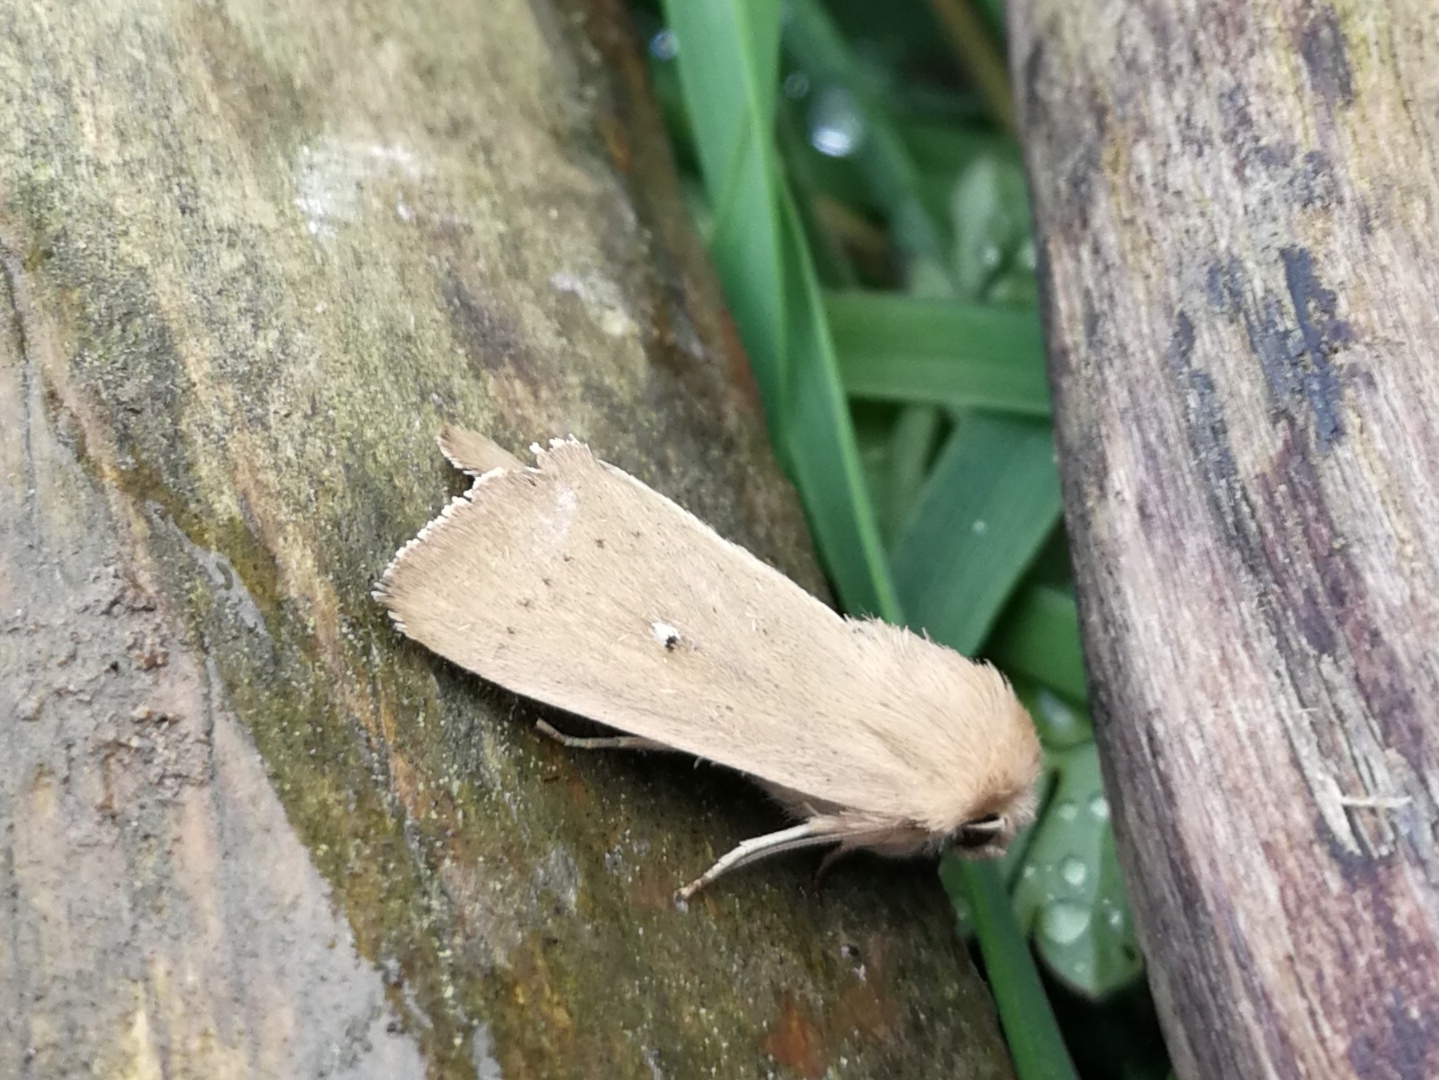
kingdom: Animalia
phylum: Arthropoda
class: Insecta
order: Lepidoptera
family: Noctuidae
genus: Mythimna
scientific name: Mythimna sicula
